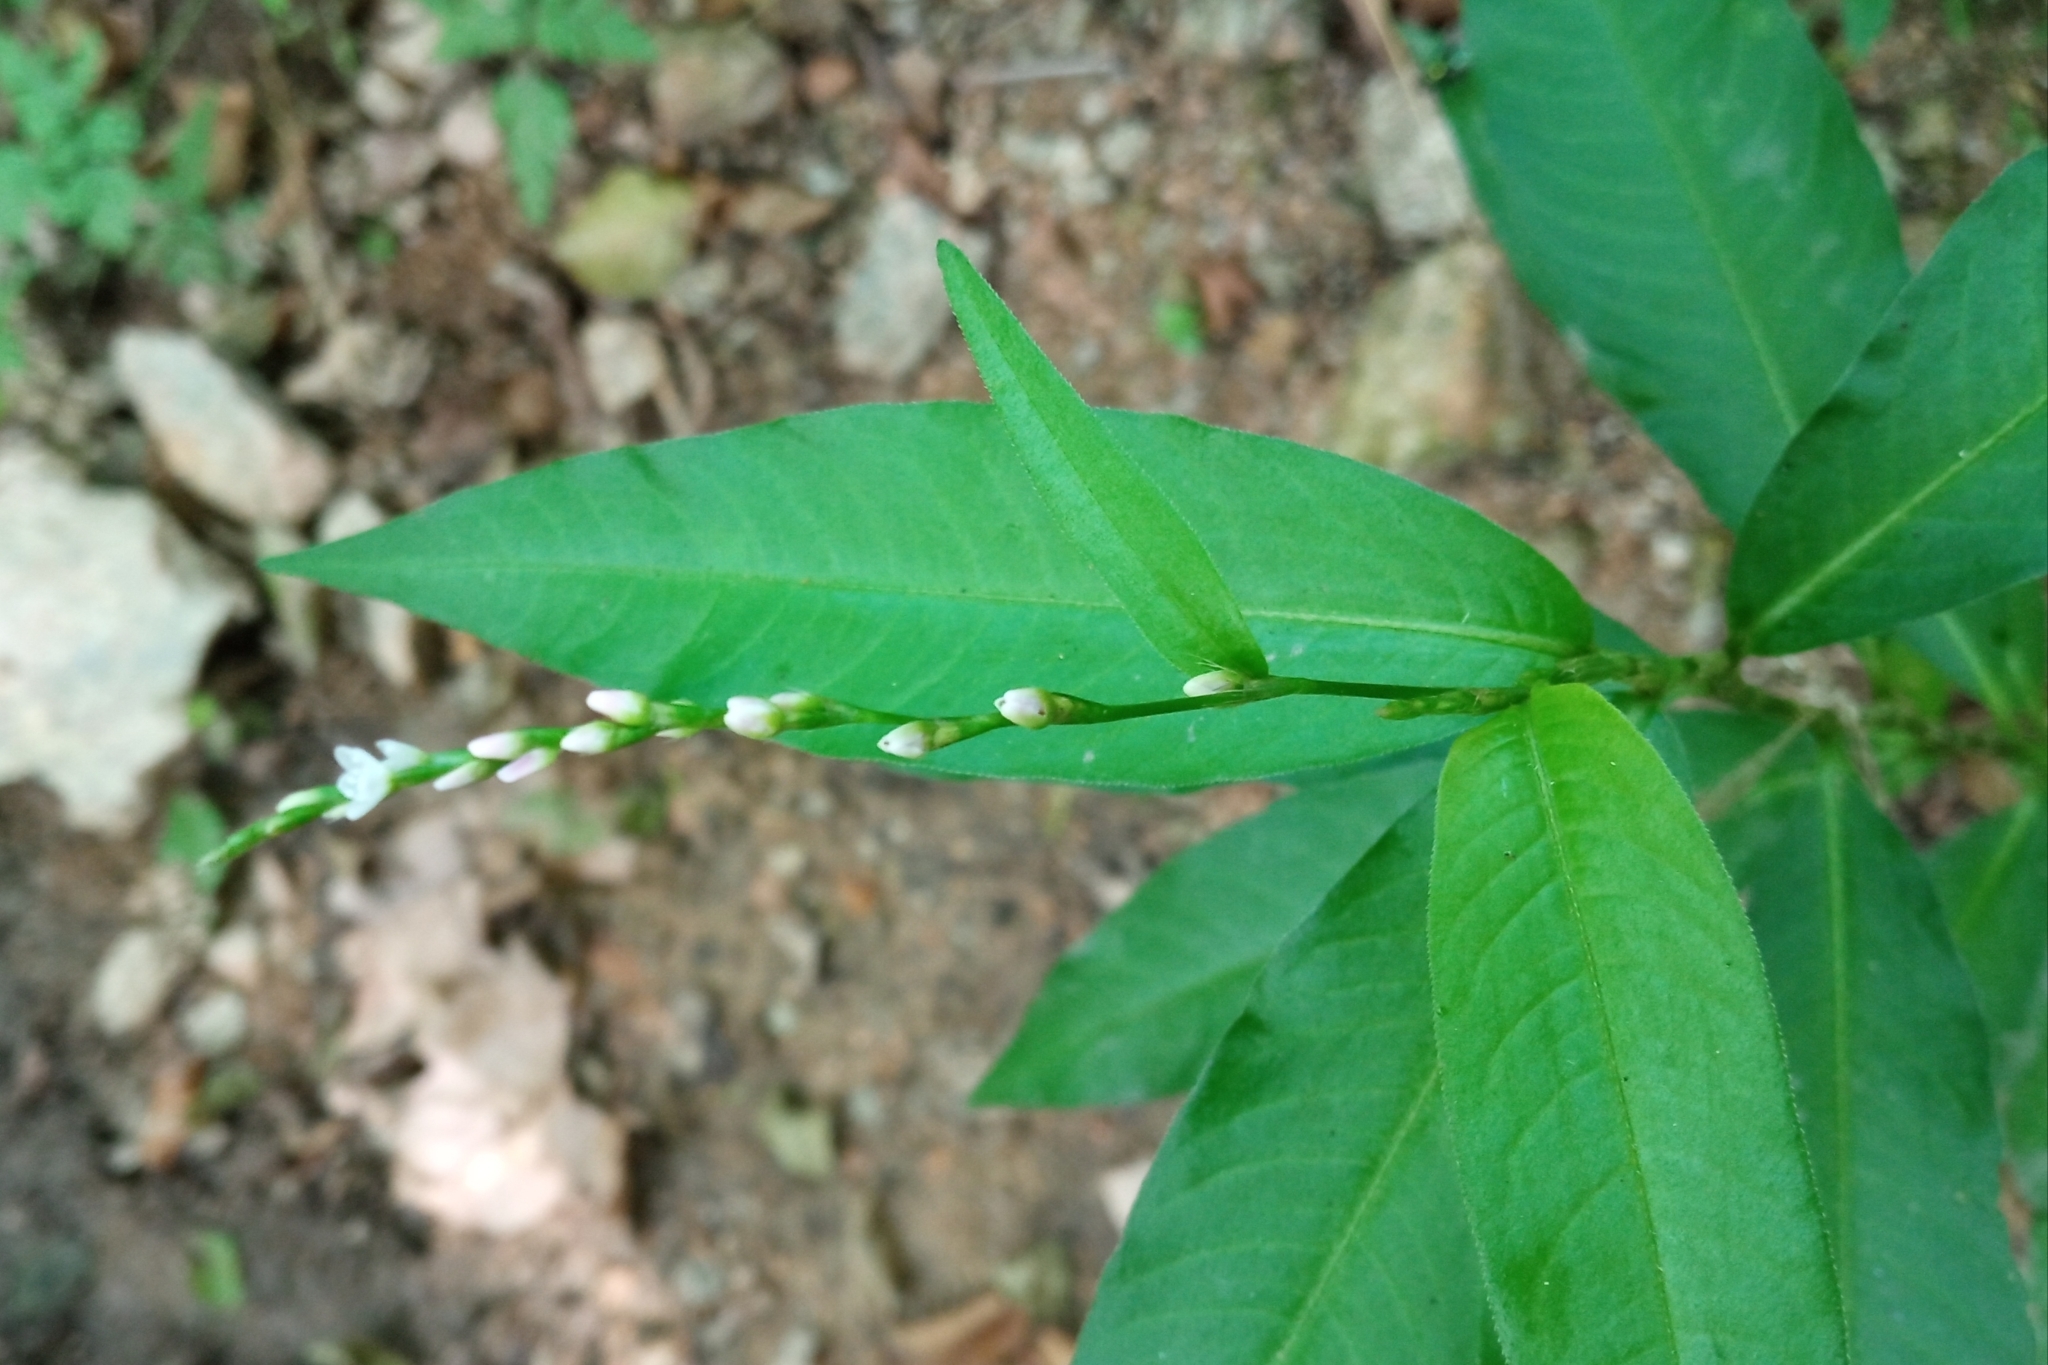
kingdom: Plantae
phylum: Tracheophyta
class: Magnoliopsida
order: Caryophyllales
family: Polygonaceae
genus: Persicaria
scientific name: Persicaria mitis
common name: Tasteless water-pepper
